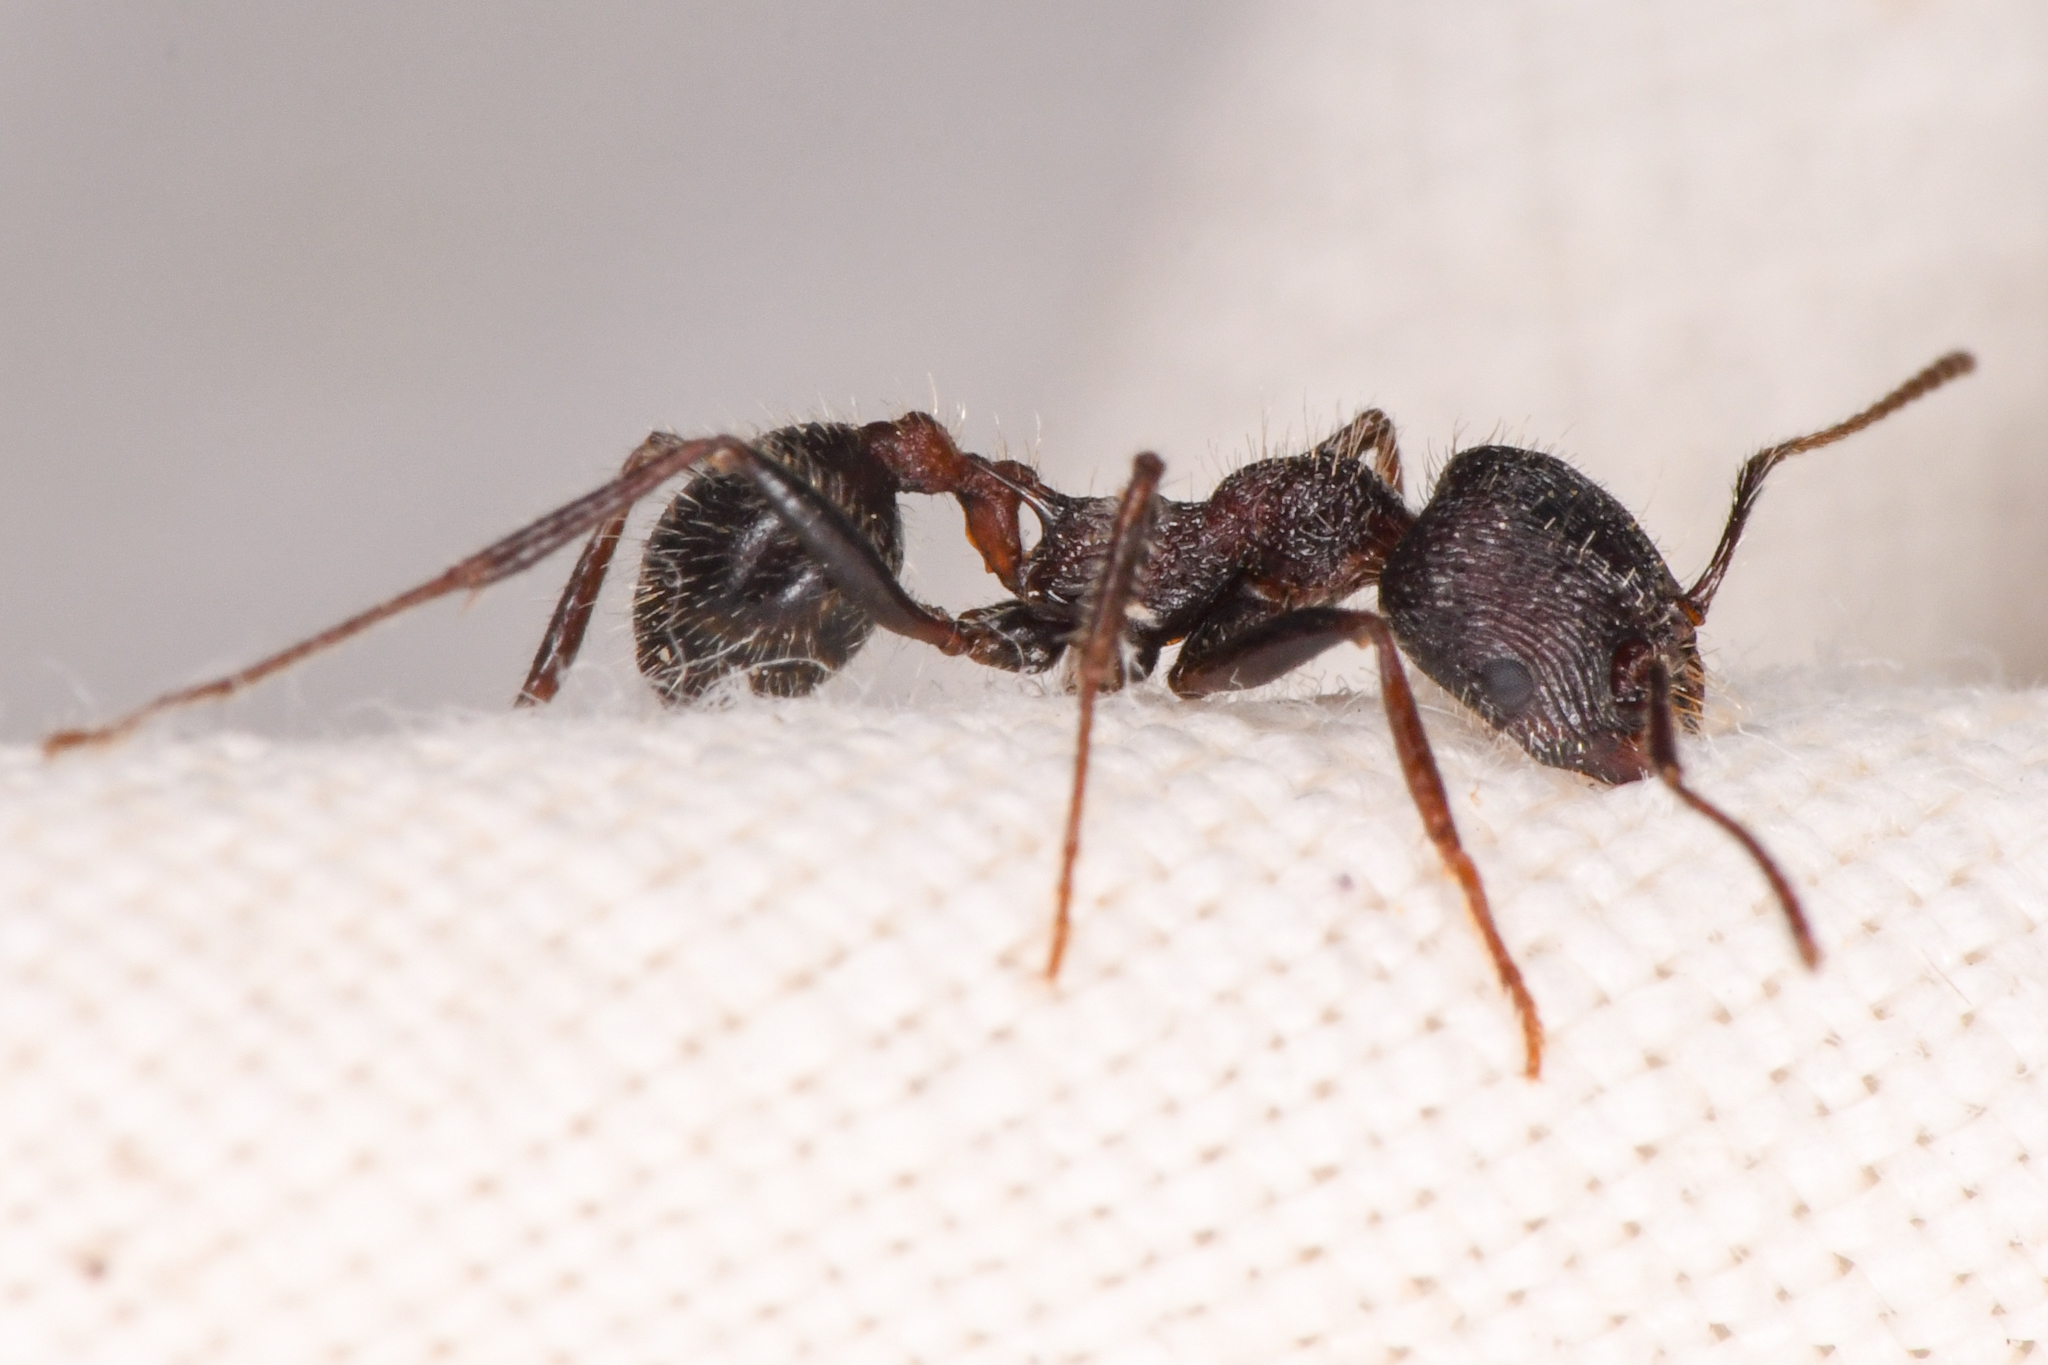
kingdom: Animalia
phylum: Arthropoda
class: Insecta
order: Hymenoptera
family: Formicidae
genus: Veromessor
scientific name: Veromessor andrei
